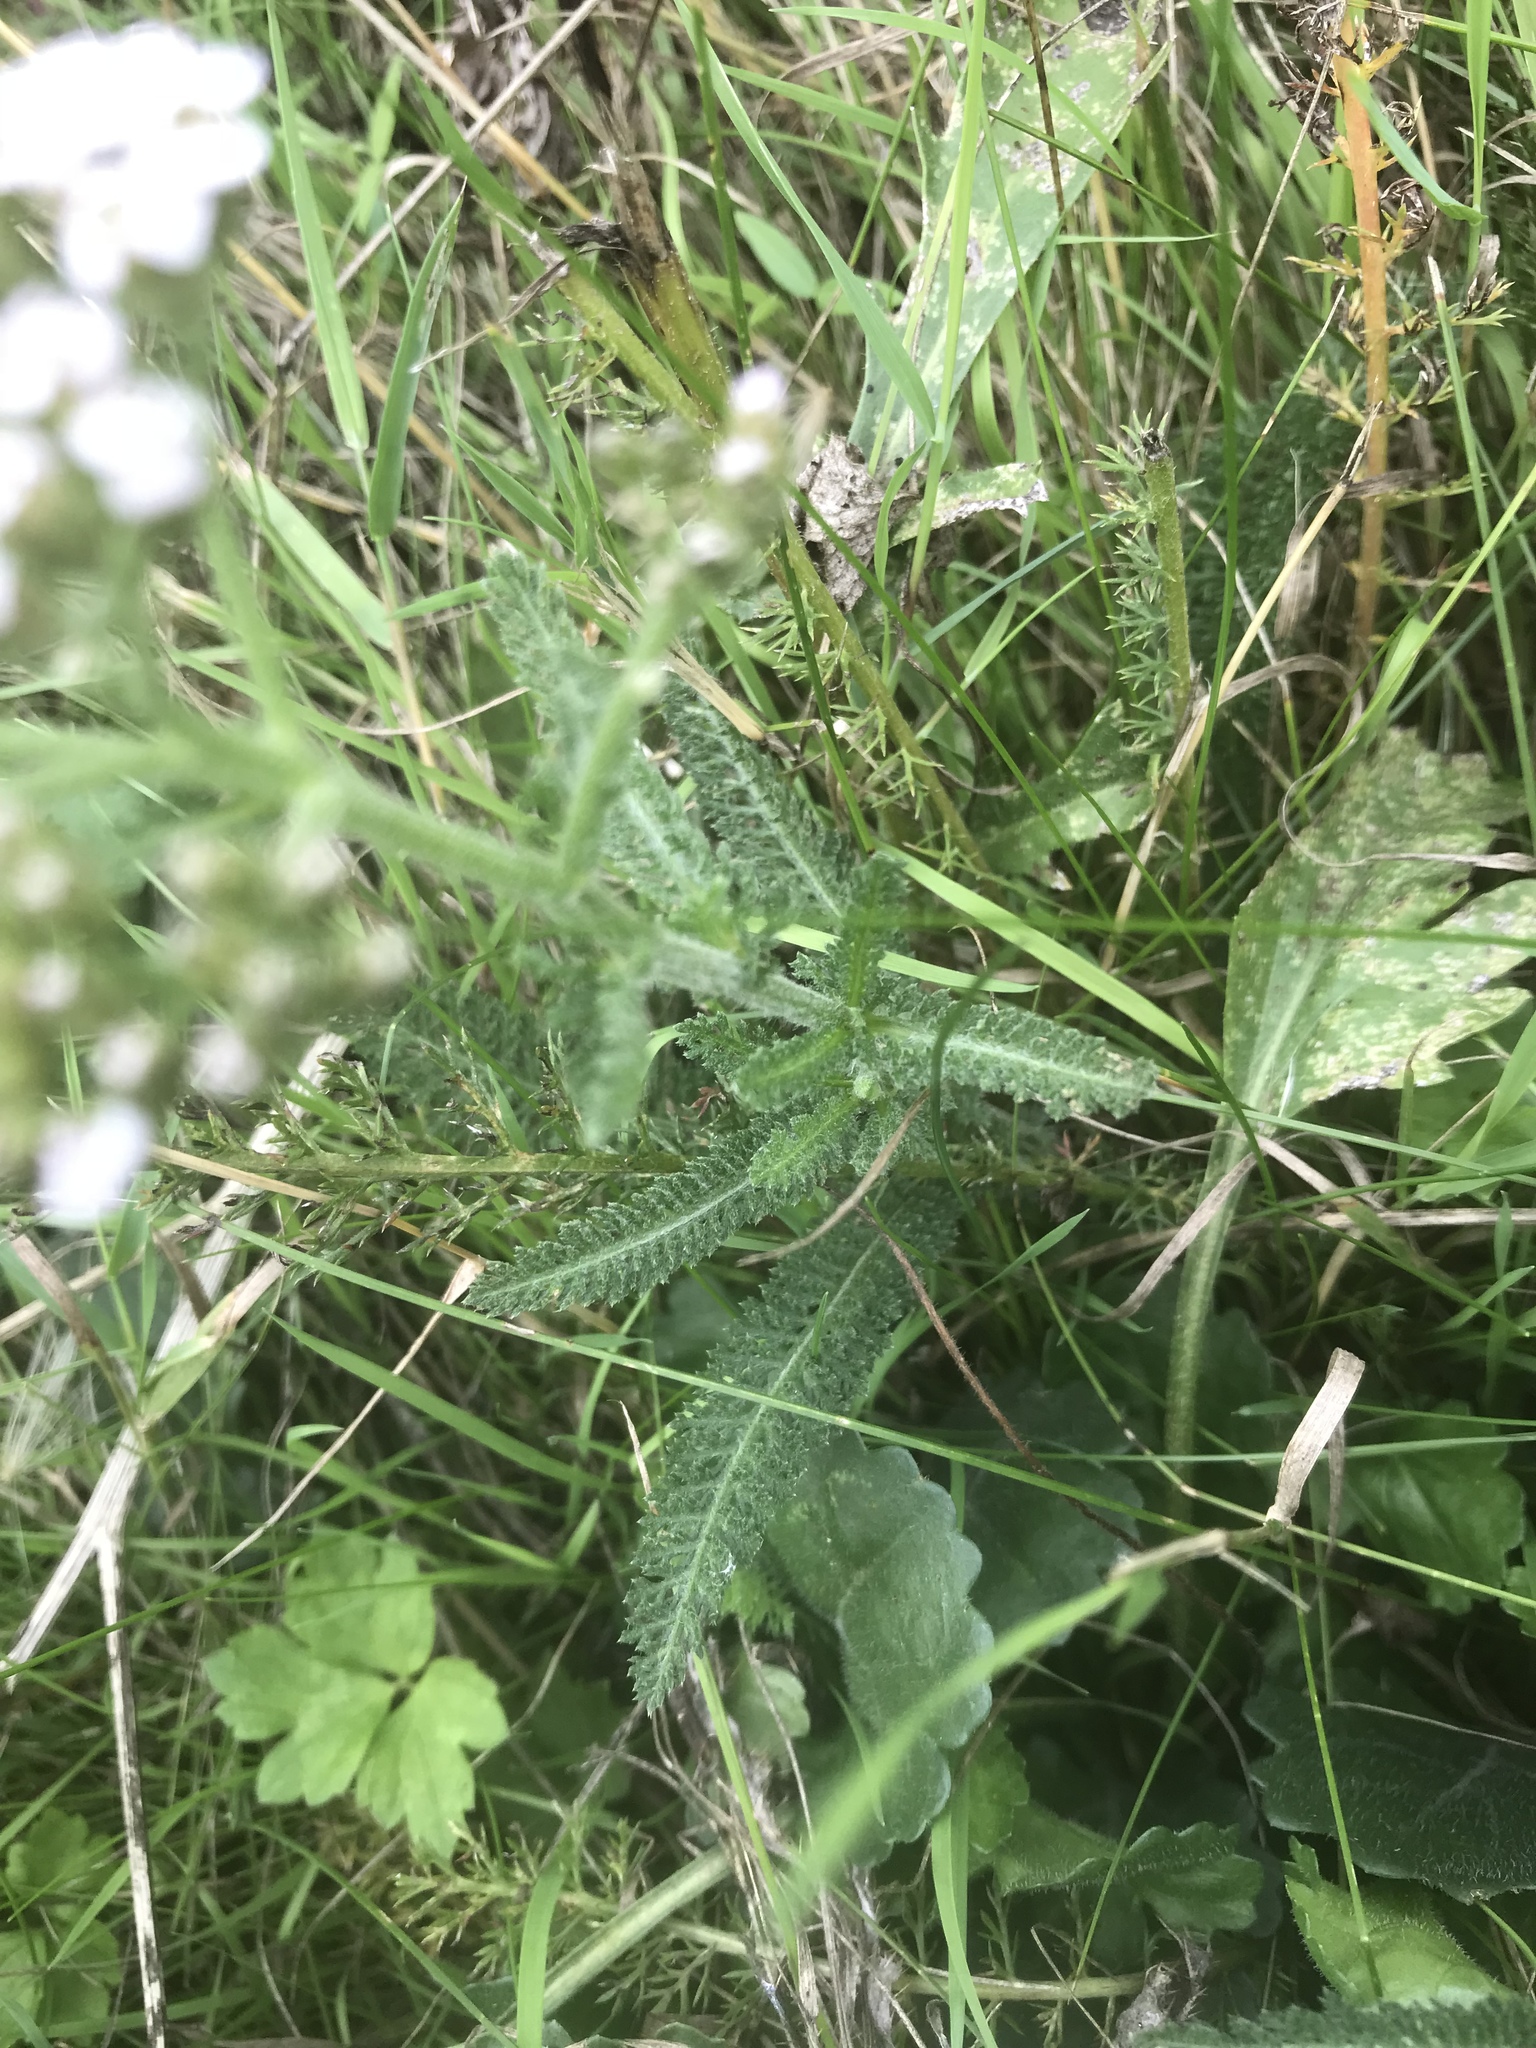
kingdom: Plantae
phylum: Tracheophyta
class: Magnoliopsida
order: Asterales
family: Asteraceae
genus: Achillea
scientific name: Achillea millefolium
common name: Yarrow
